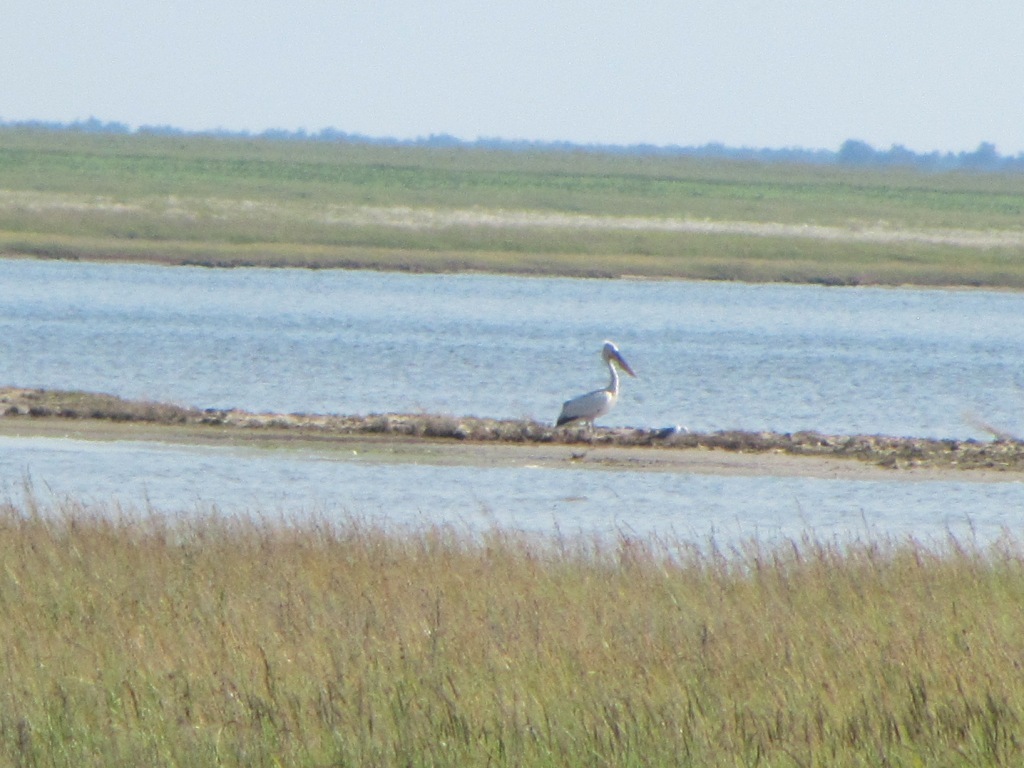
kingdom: Animalia
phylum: Chordata
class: Aves
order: Pelecaniformes
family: Pelecanidae
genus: Pelecanus
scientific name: Pelecanus crispus
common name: Dalmatian pelican
